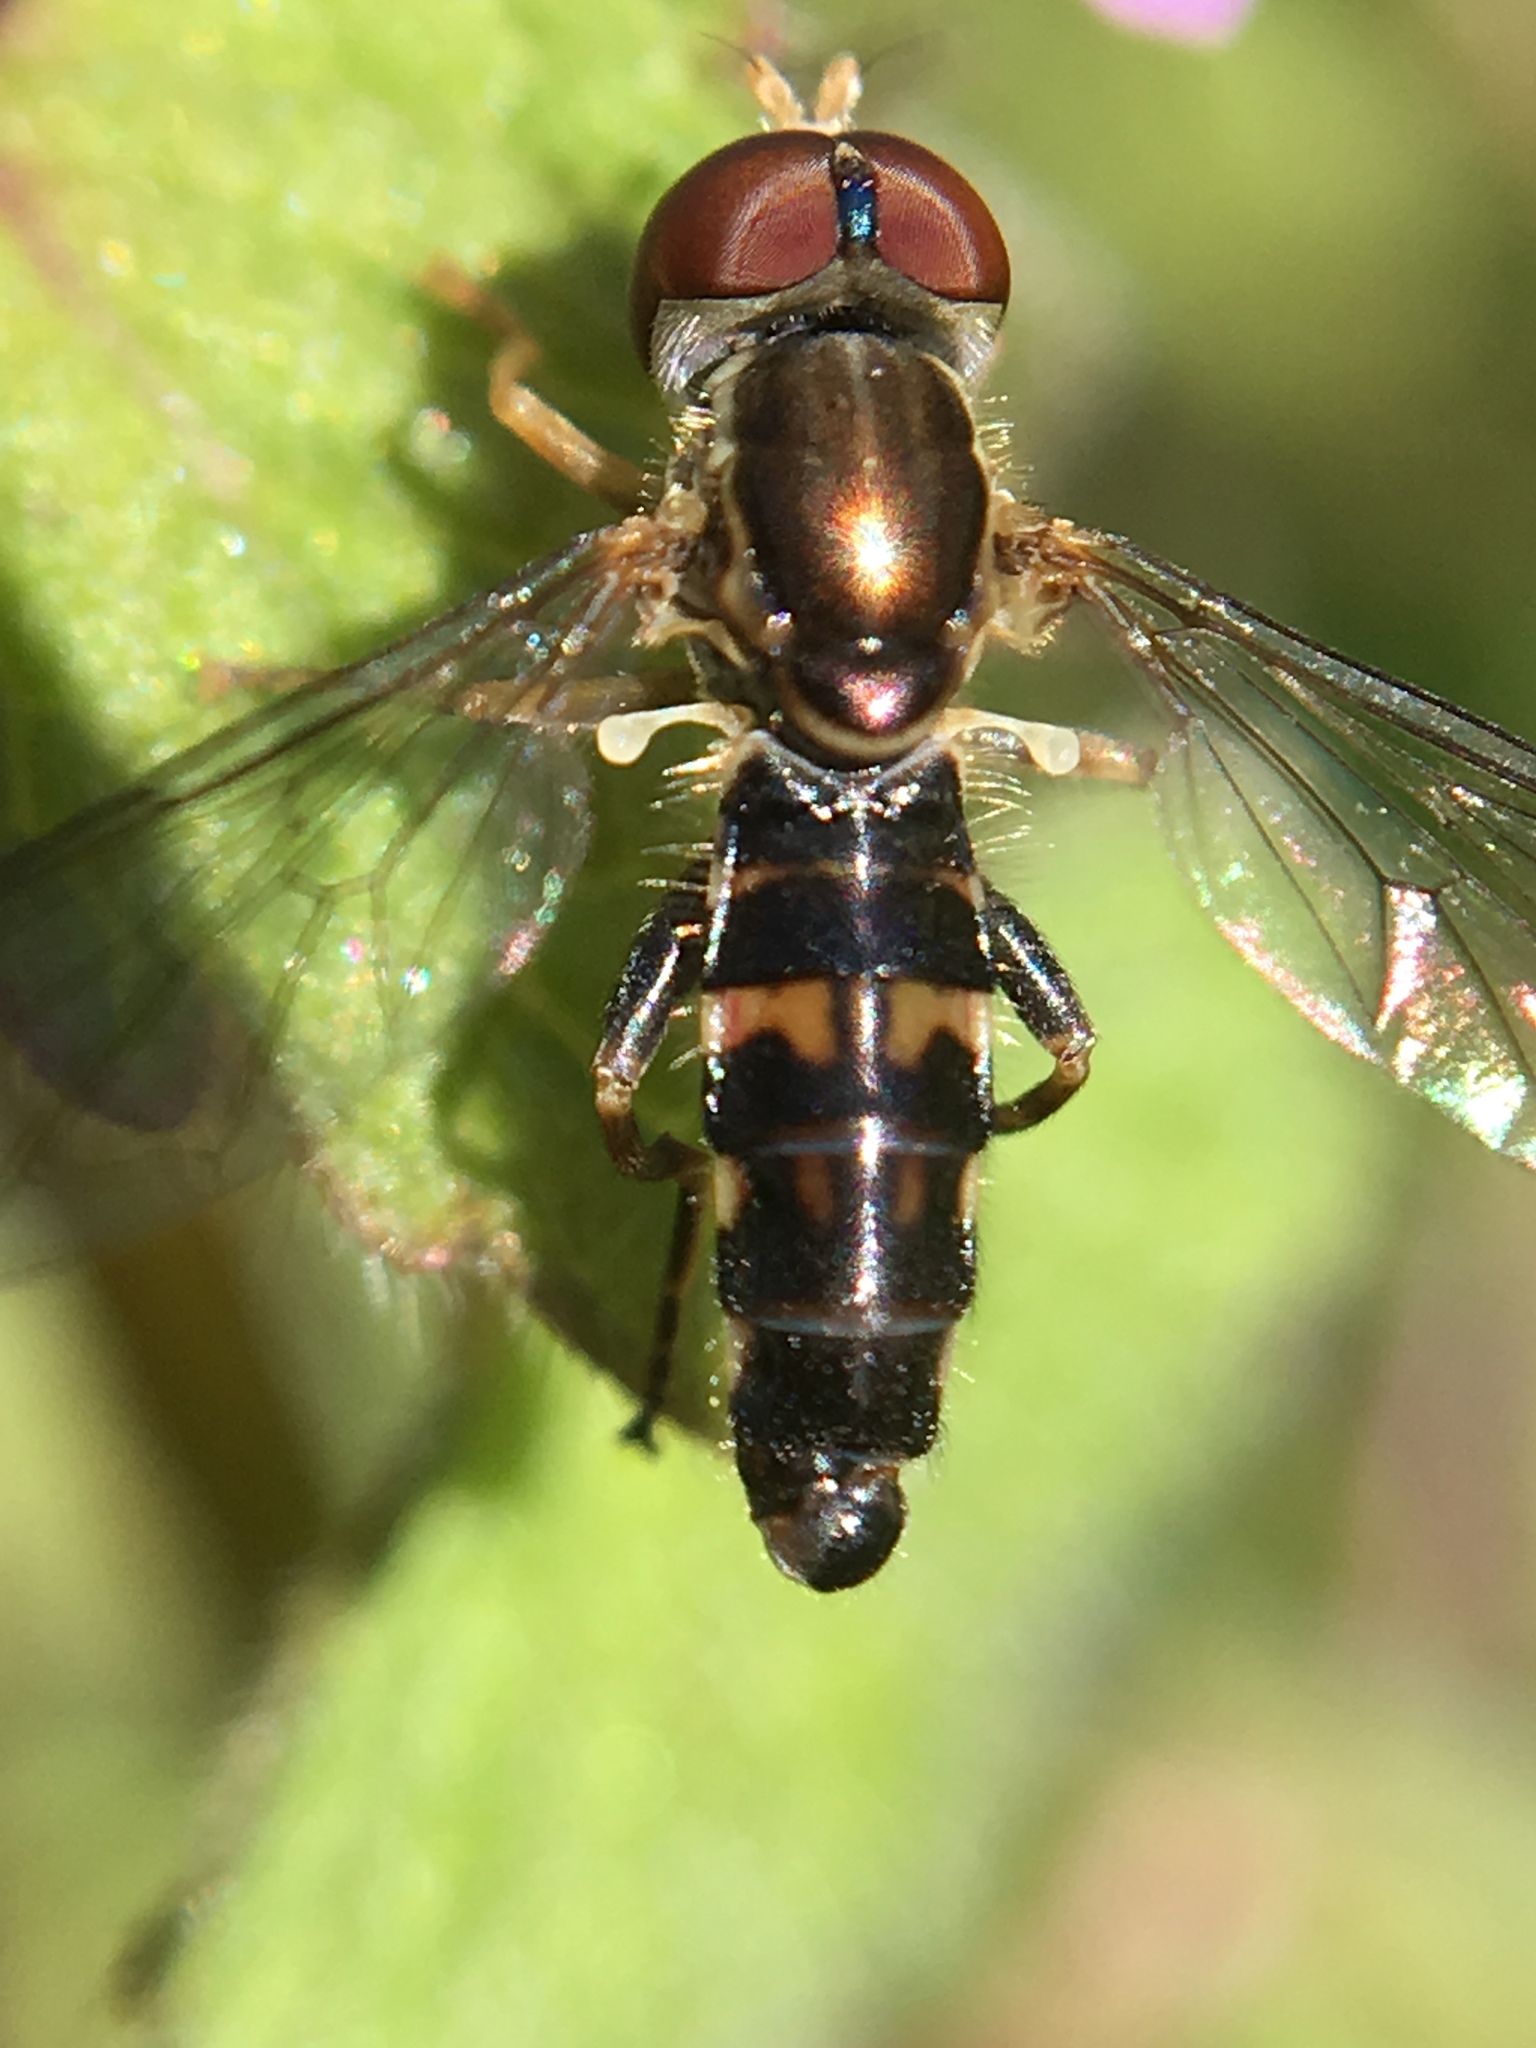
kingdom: Animalia
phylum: Arthropoda
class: Insecta
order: Diptera
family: Syrphidae
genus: Toxomerus
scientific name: Toxomerus geminatus
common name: Eastern calligrapher
